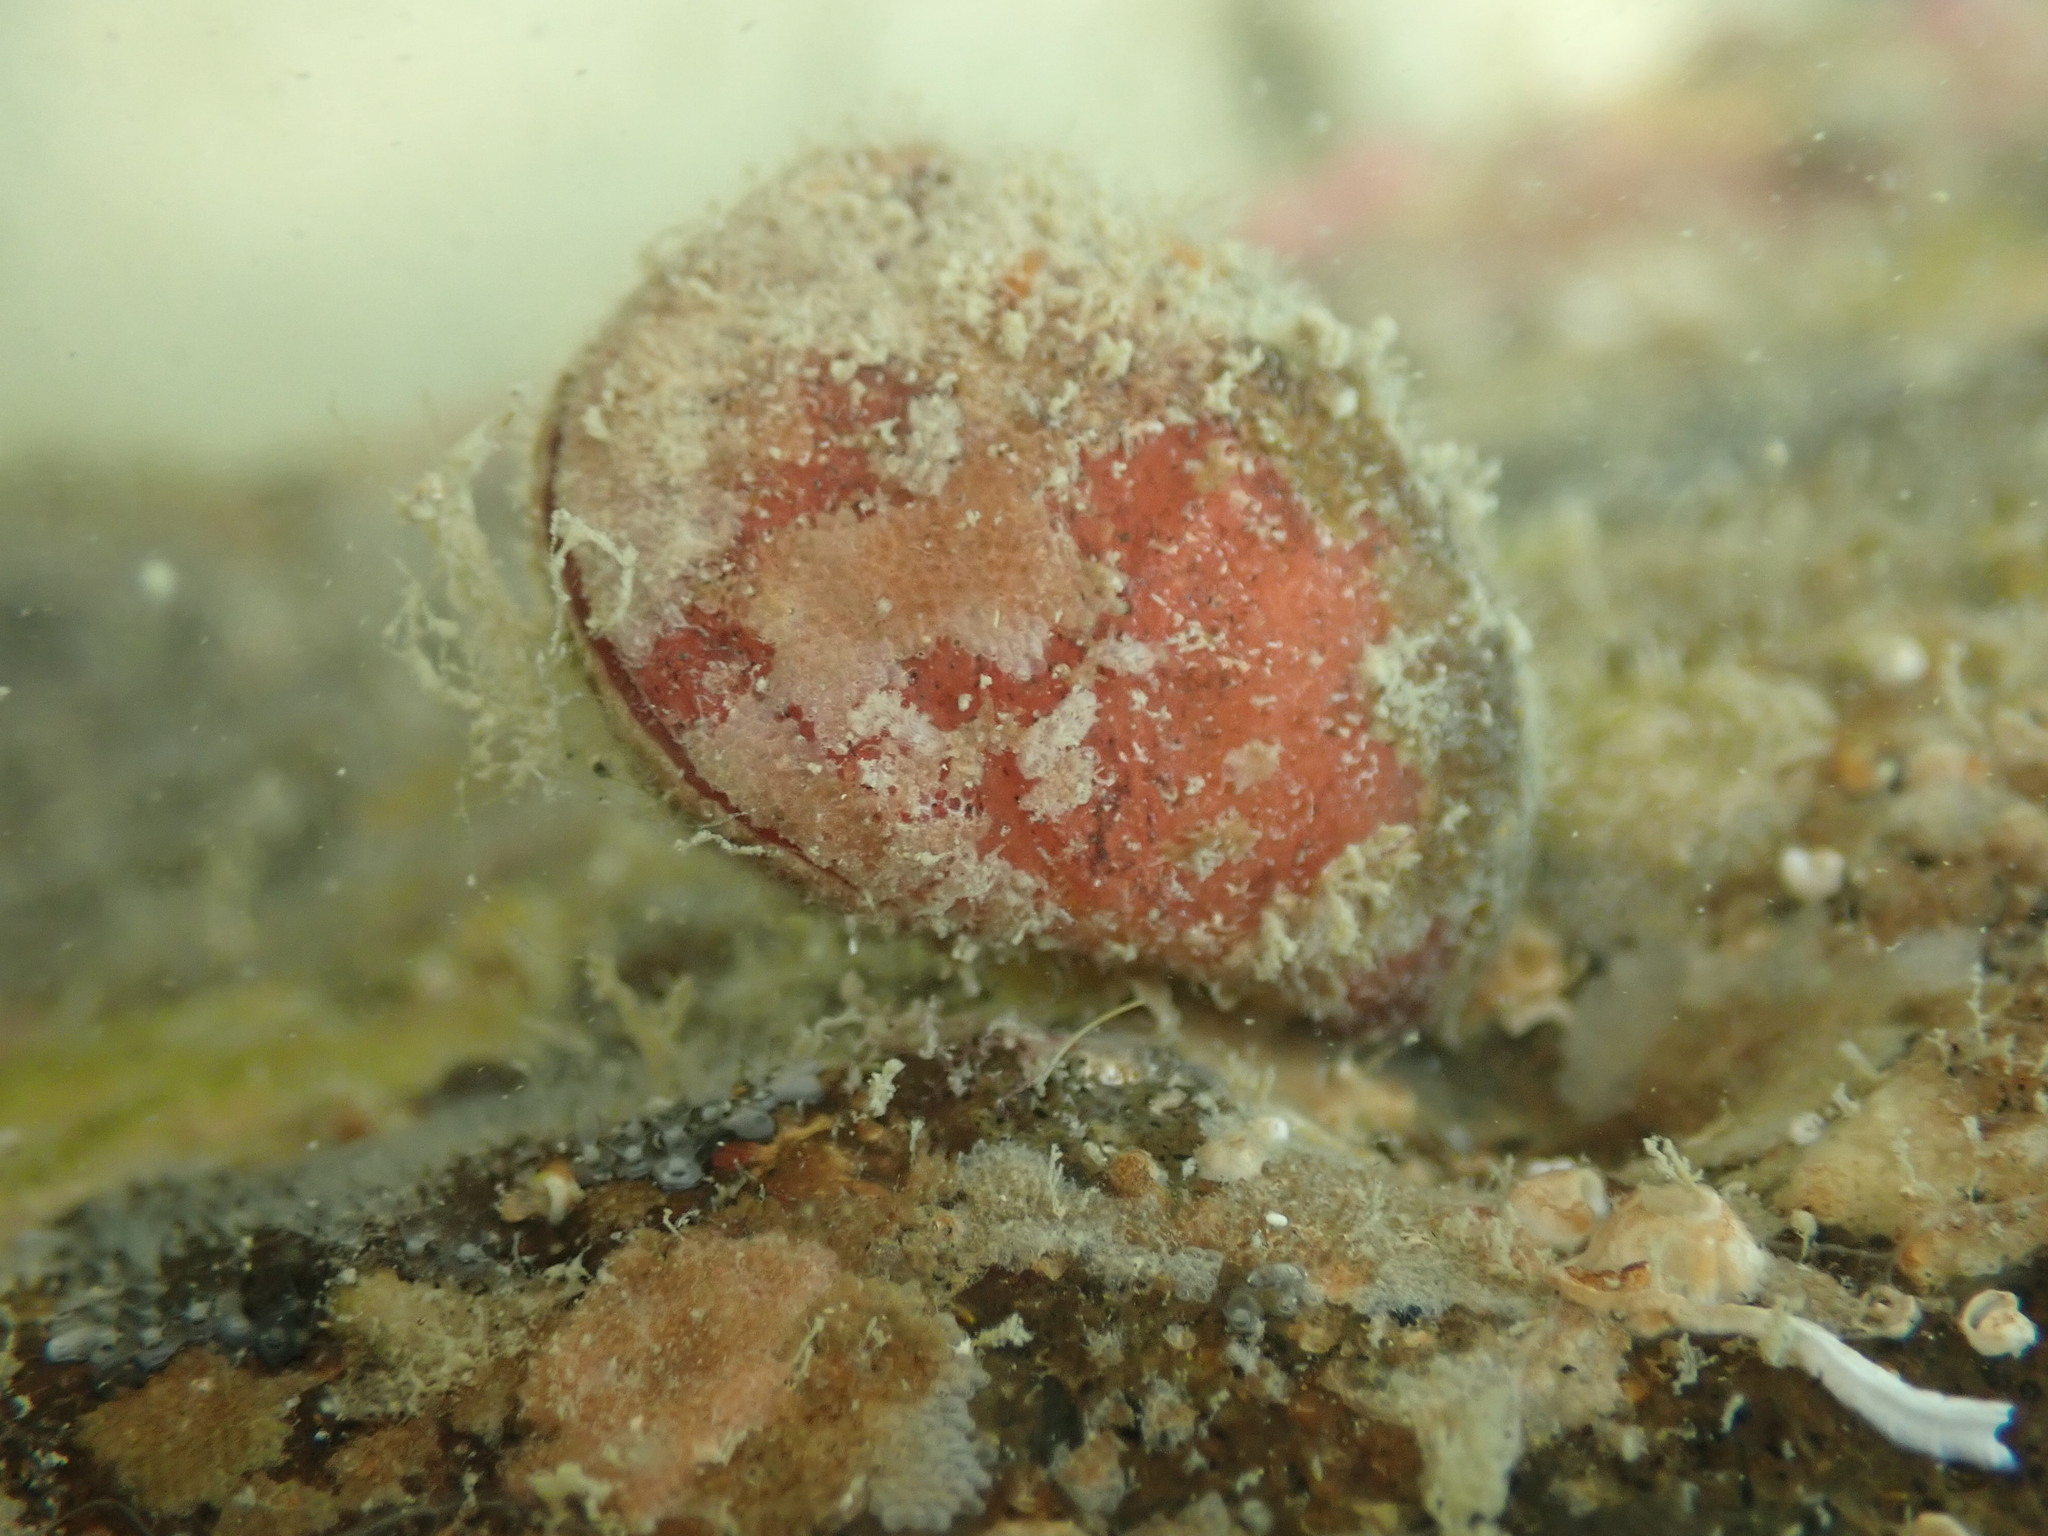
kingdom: Animalia
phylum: Brachiopoda
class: Rhynchonellata
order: Terebratulida
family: Terebratellidae
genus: Calloria
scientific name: Calloria inconspicua
